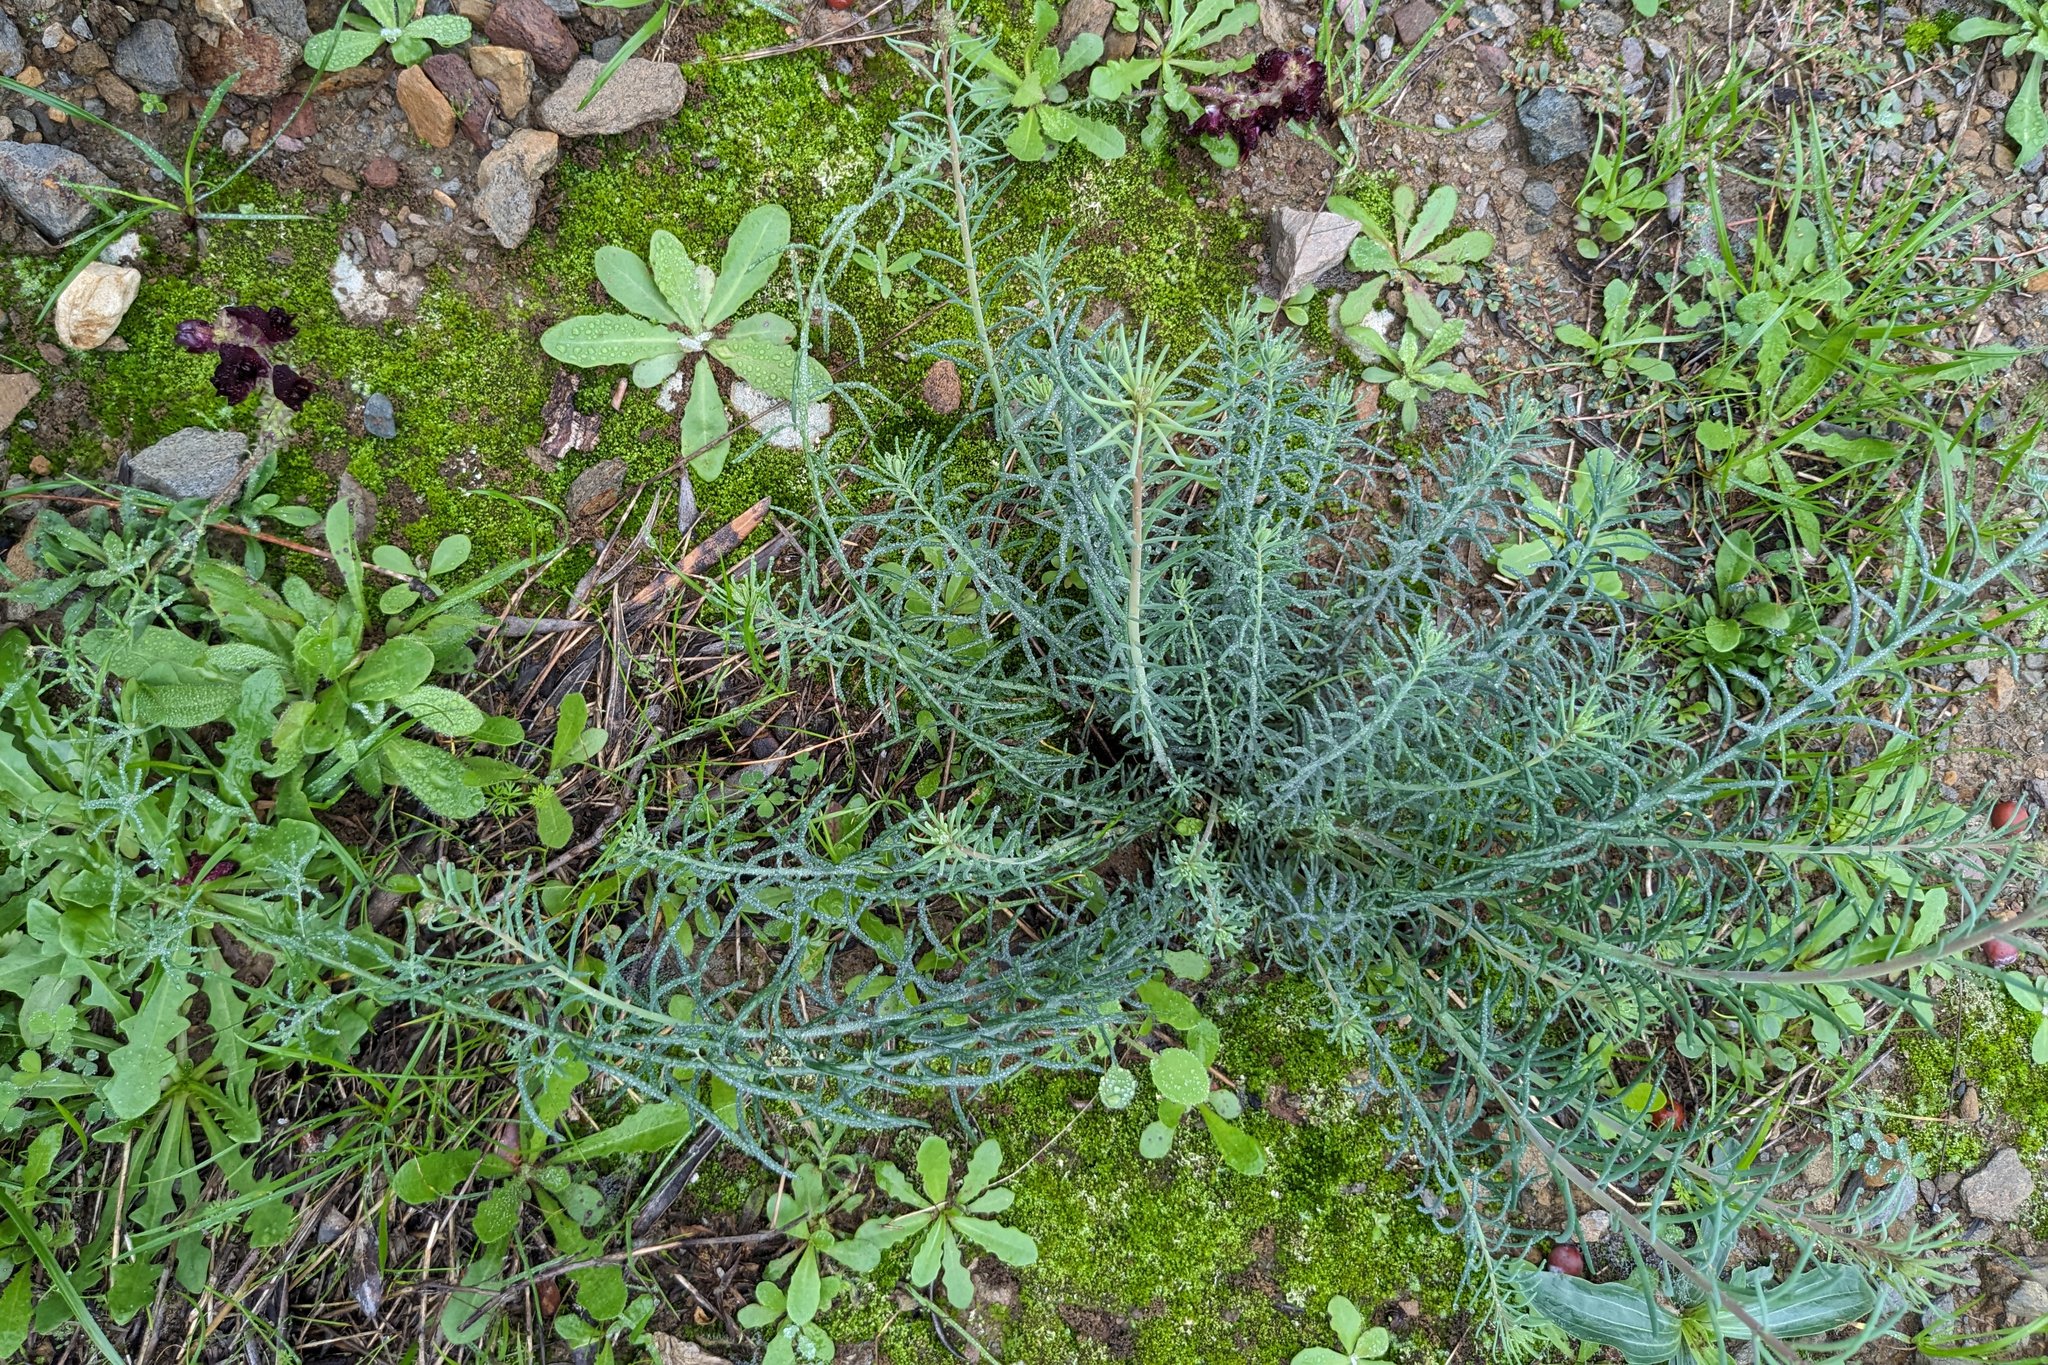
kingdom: Plantae
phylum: Tracheophyta
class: Magnoliopsida
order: Lamiales
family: Plantaginaceae
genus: Linaria
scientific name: Linaria aeruginea
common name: Roadside toadflax
